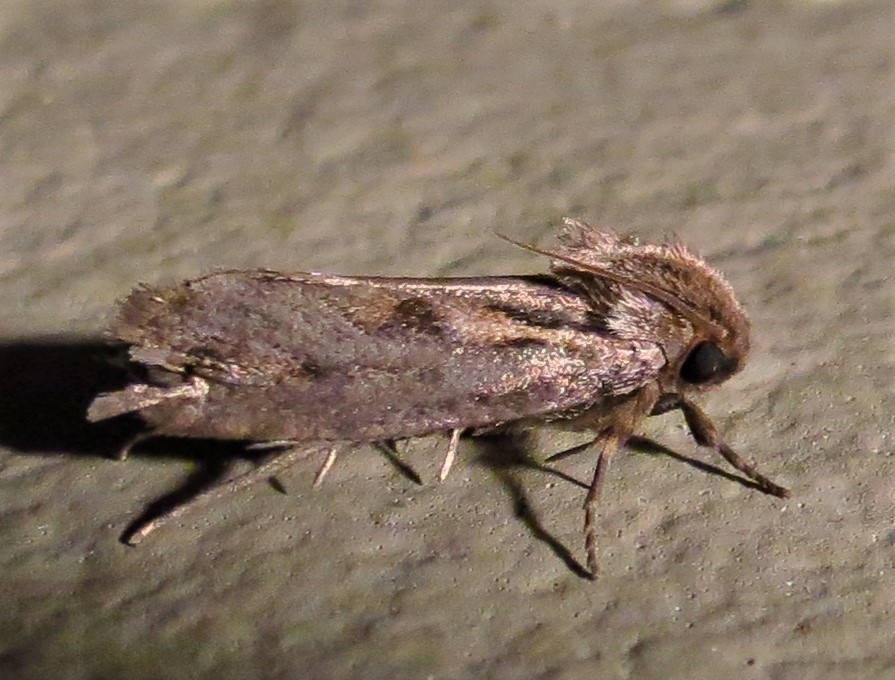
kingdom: Animalia
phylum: Arthropoda
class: Insecta
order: Lepidoptera
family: Tineidae
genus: Acrolophus
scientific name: Acrolophus popeanella
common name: Clemens' grass tubeworm moth
